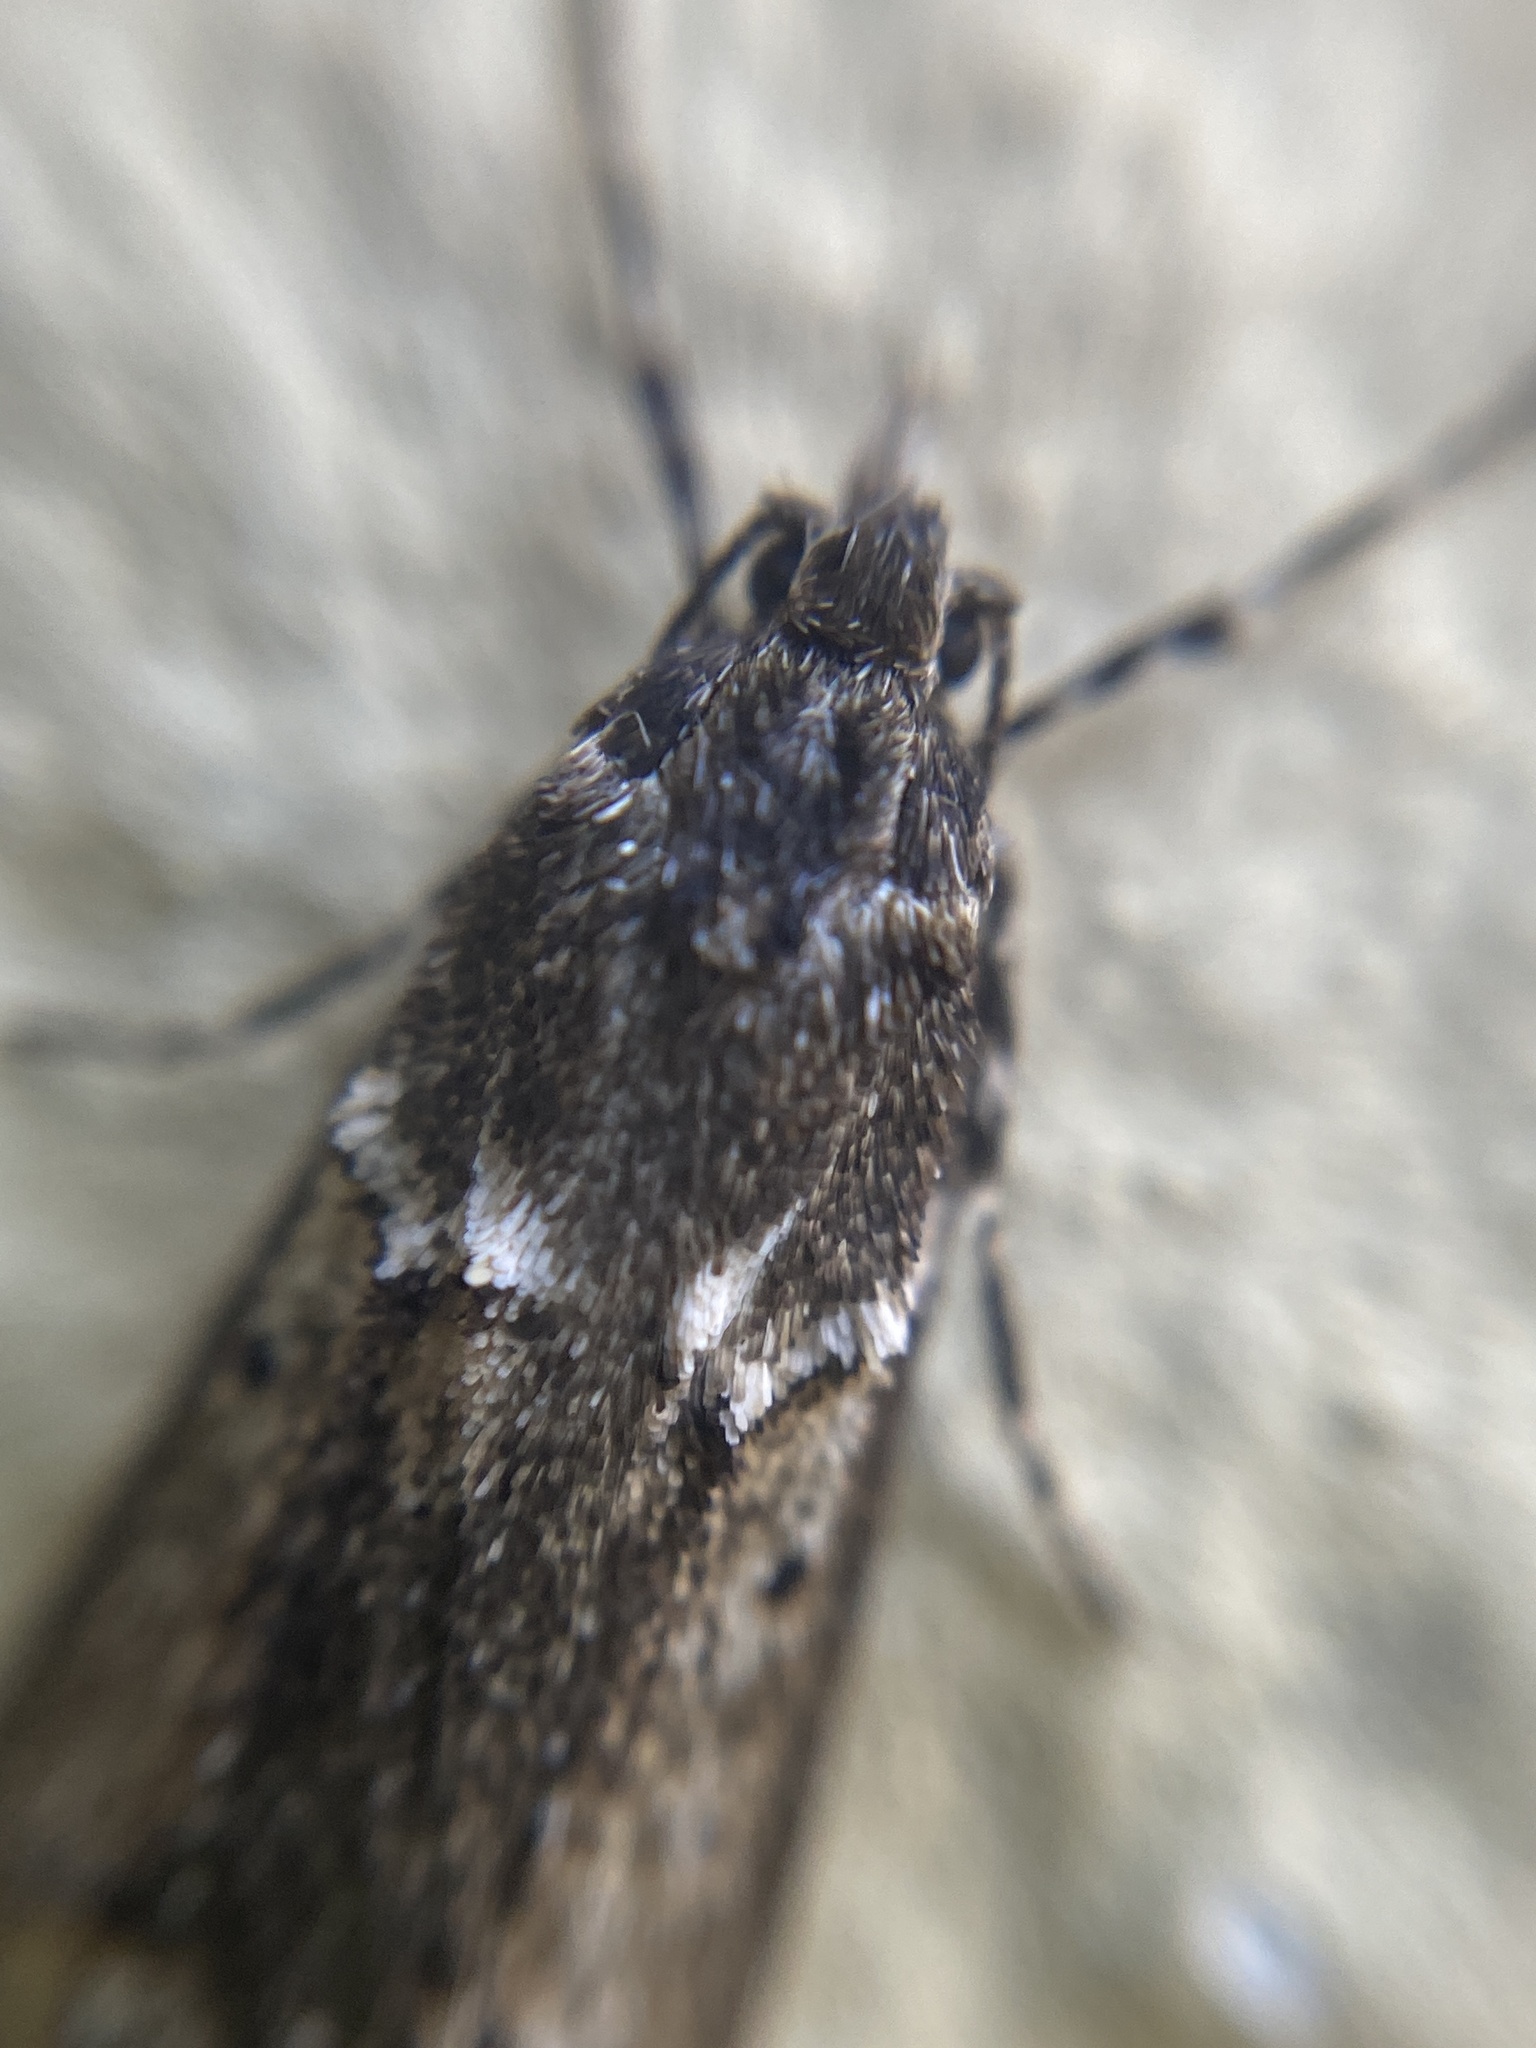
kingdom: Animalia
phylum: Arthropoda
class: Insecta
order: Lepidoptera
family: Lypusidae
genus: Diurnea
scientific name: Diurnea fagella
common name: March tubic
